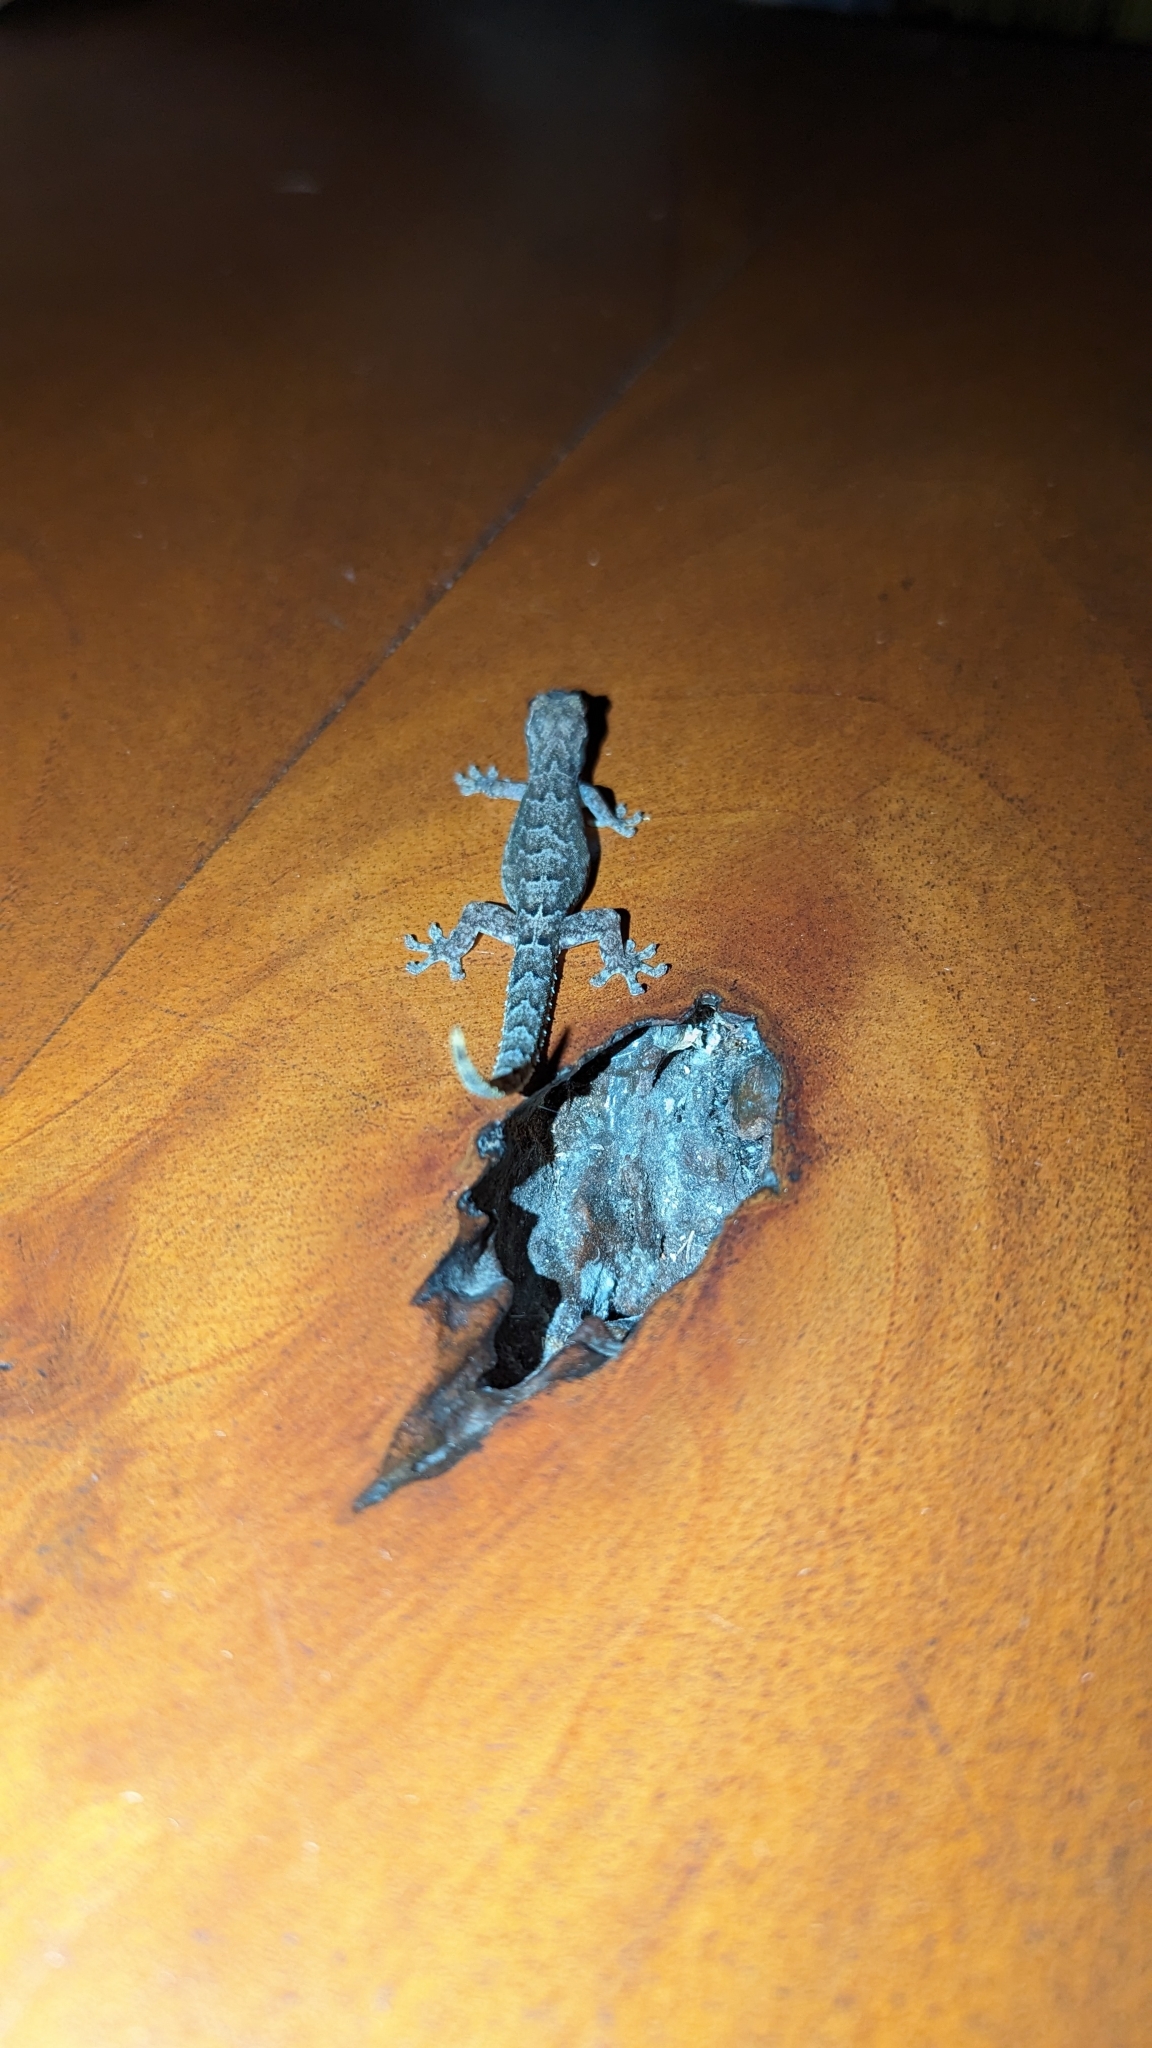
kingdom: Animalia
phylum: Chordata
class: Squamata
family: Gekkonidae
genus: Lepidodactylus
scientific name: Lepidodactylus lugubris
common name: Mourning gecko
